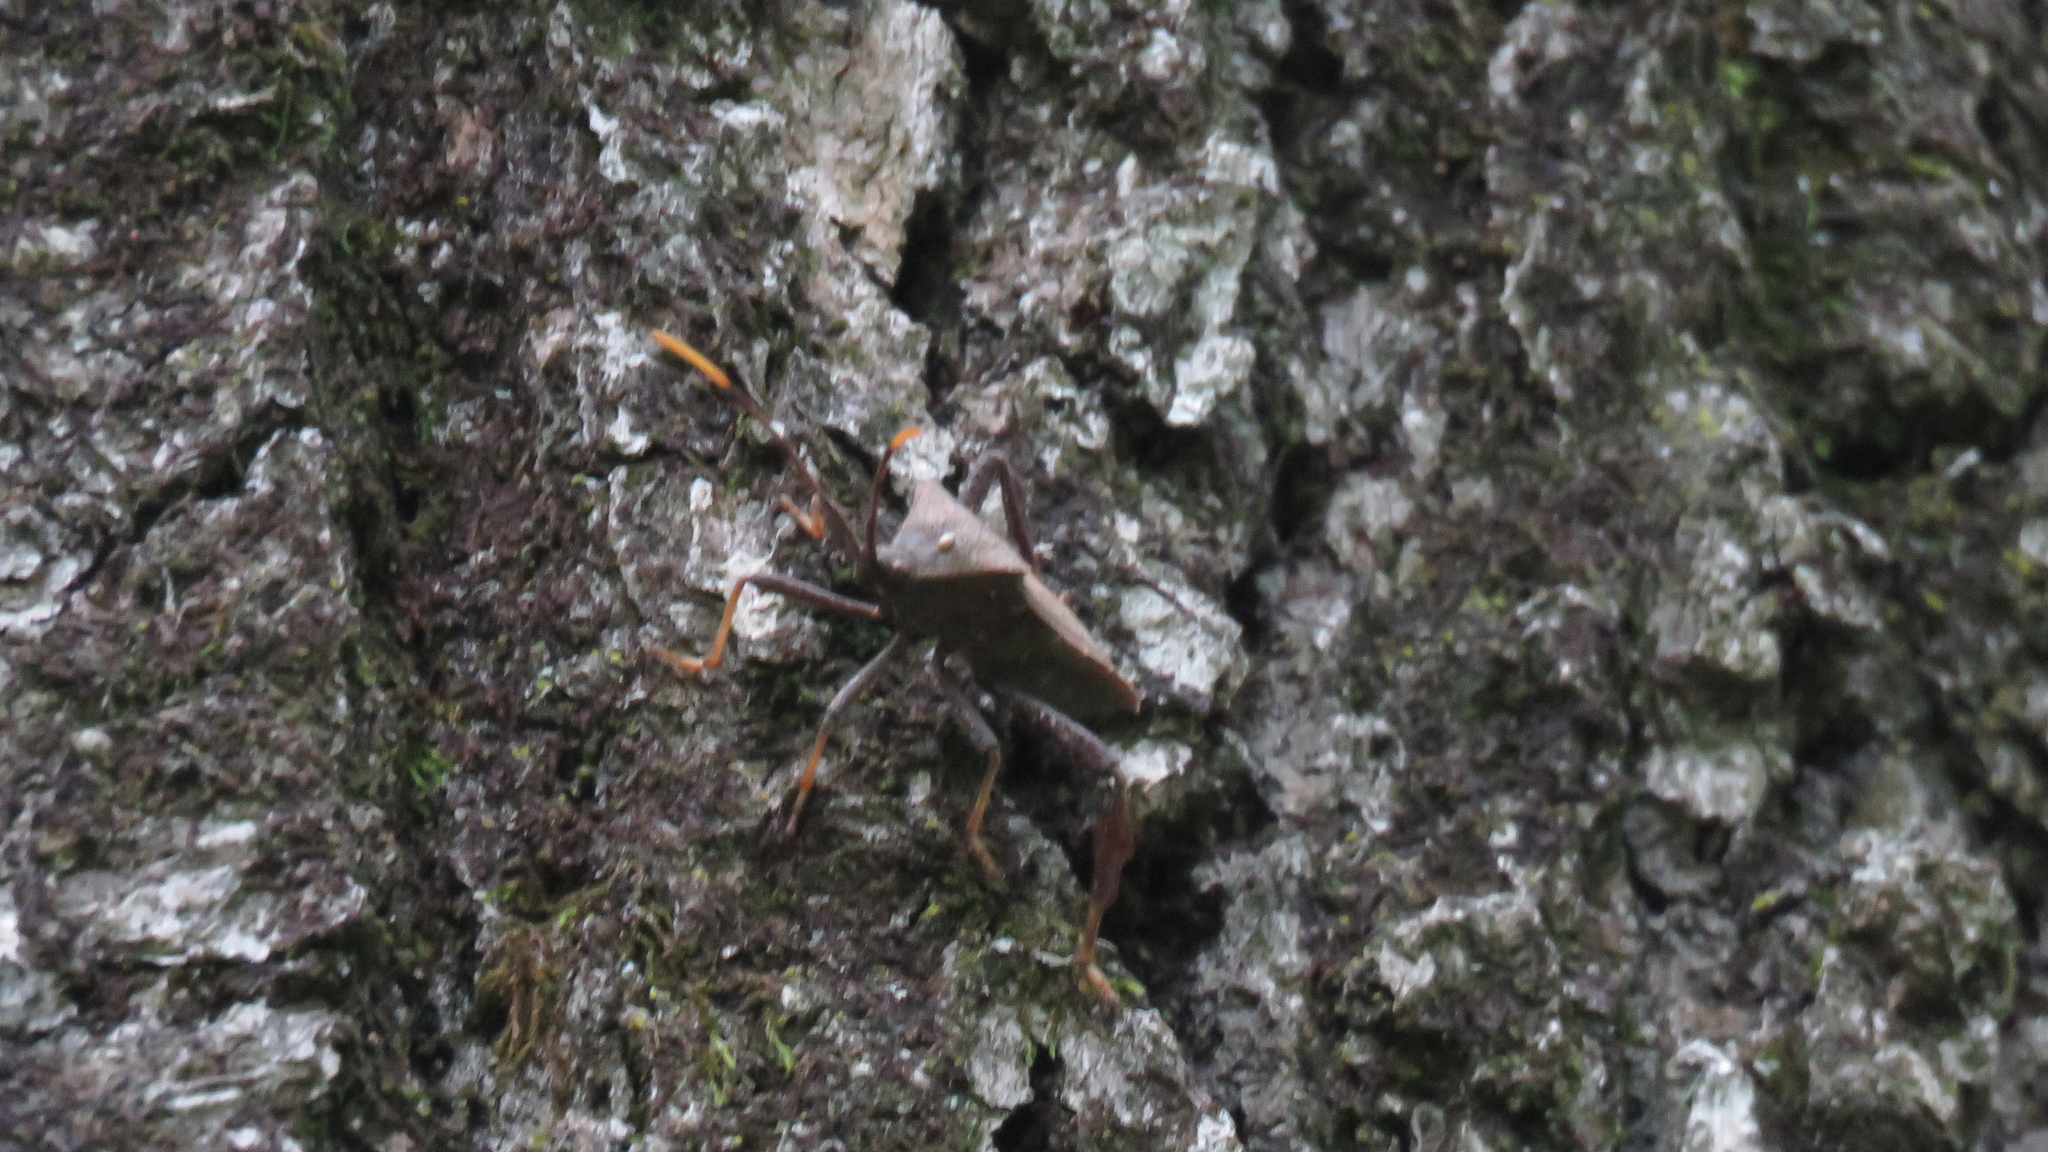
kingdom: Animalia
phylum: Arthropoda
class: Insecta
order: Hemiptera
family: Coreidae
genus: Acanthocephala
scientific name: Acanthocephala terminalis
